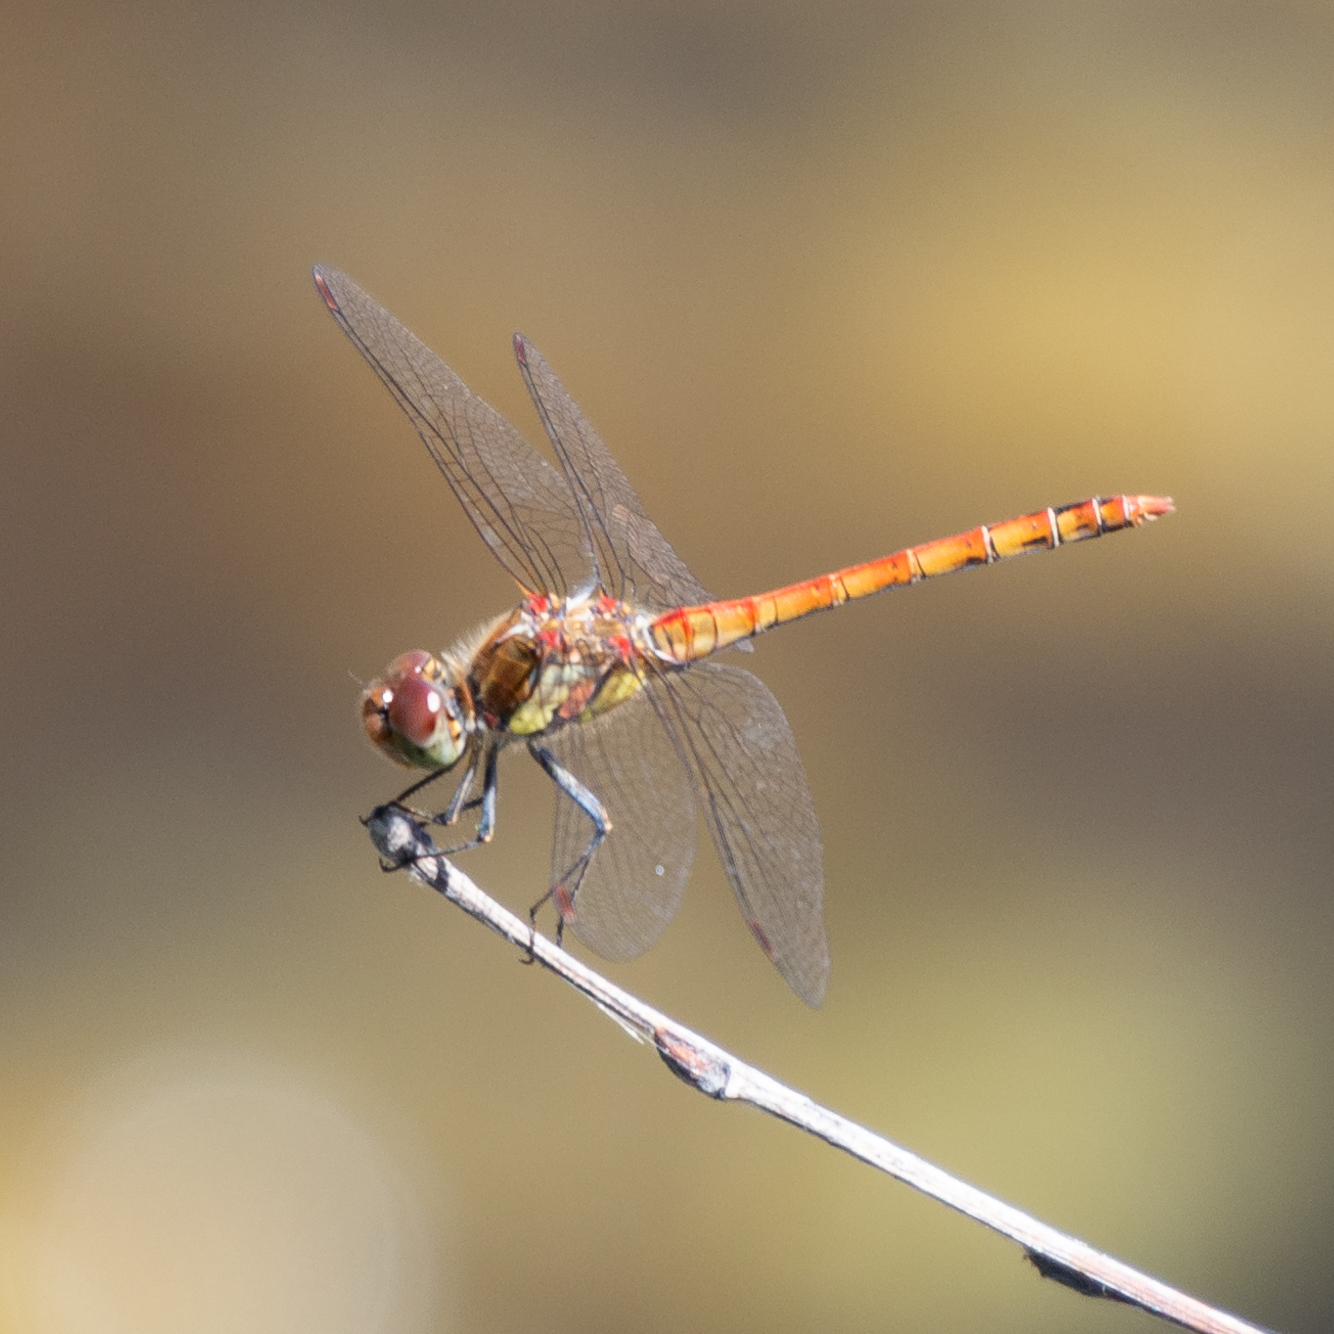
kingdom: Animalia
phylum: Arthropoda
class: Insecta
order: Odonata
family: Libellulidae
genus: Sympetrum
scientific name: Sympetrum striolatum
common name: Common darter
